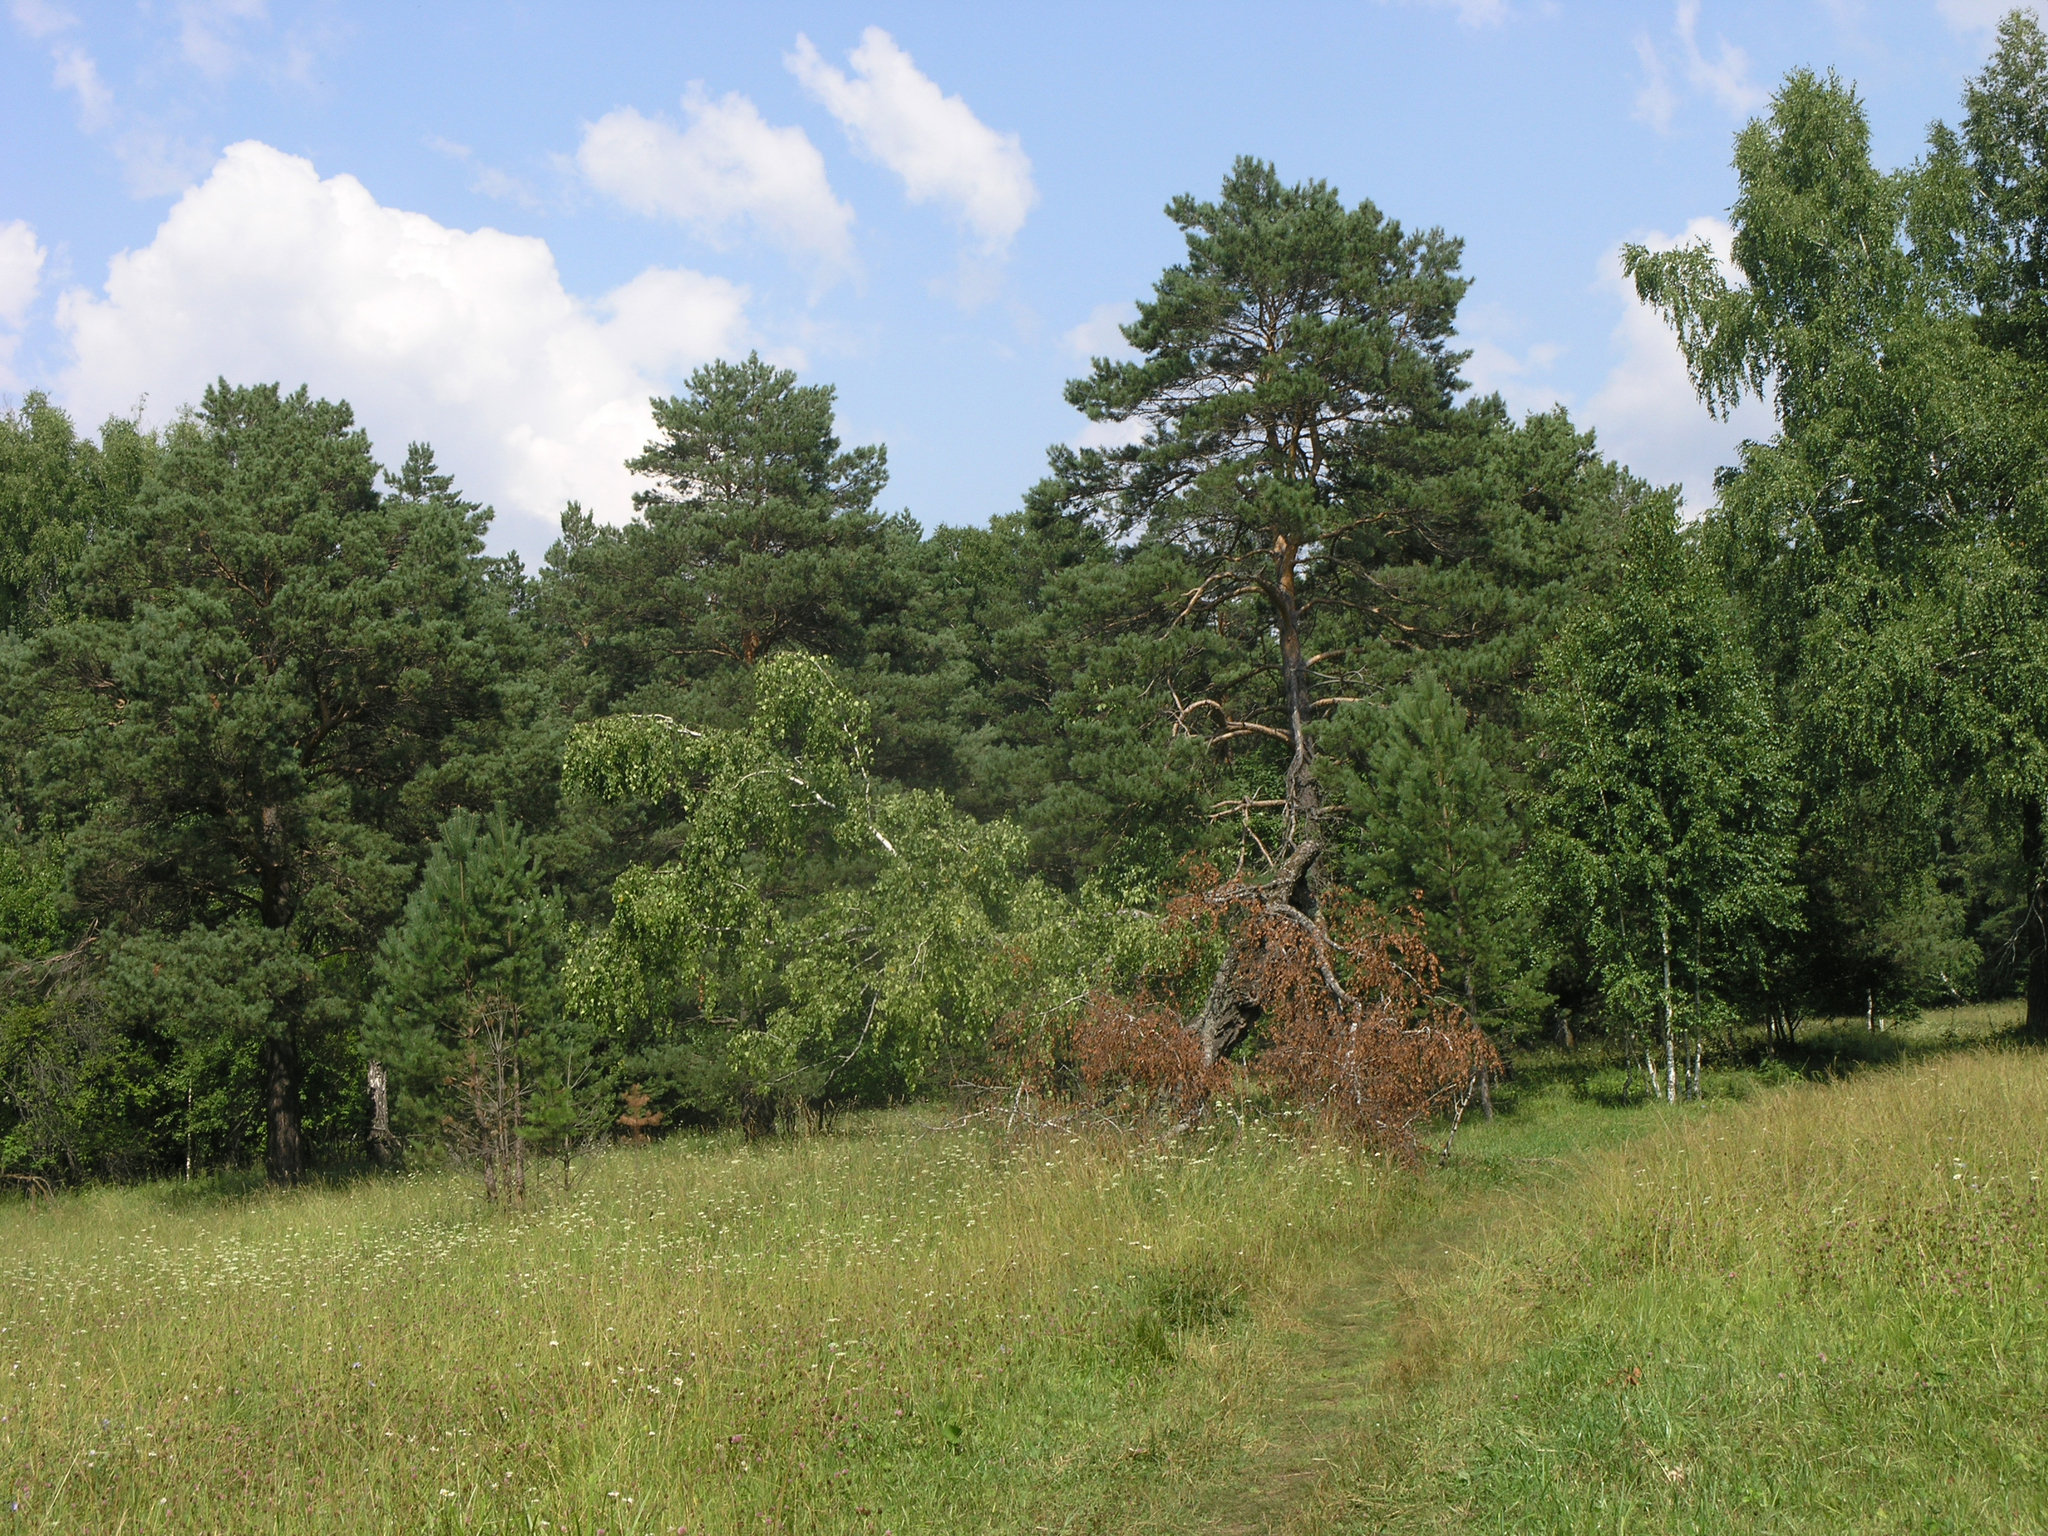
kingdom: Plantae
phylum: Tracheophyta
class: Pinopsida
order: Pinales
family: Pinaceae
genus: Pinus
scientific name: Pinus sylvestris
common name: Scots pine
